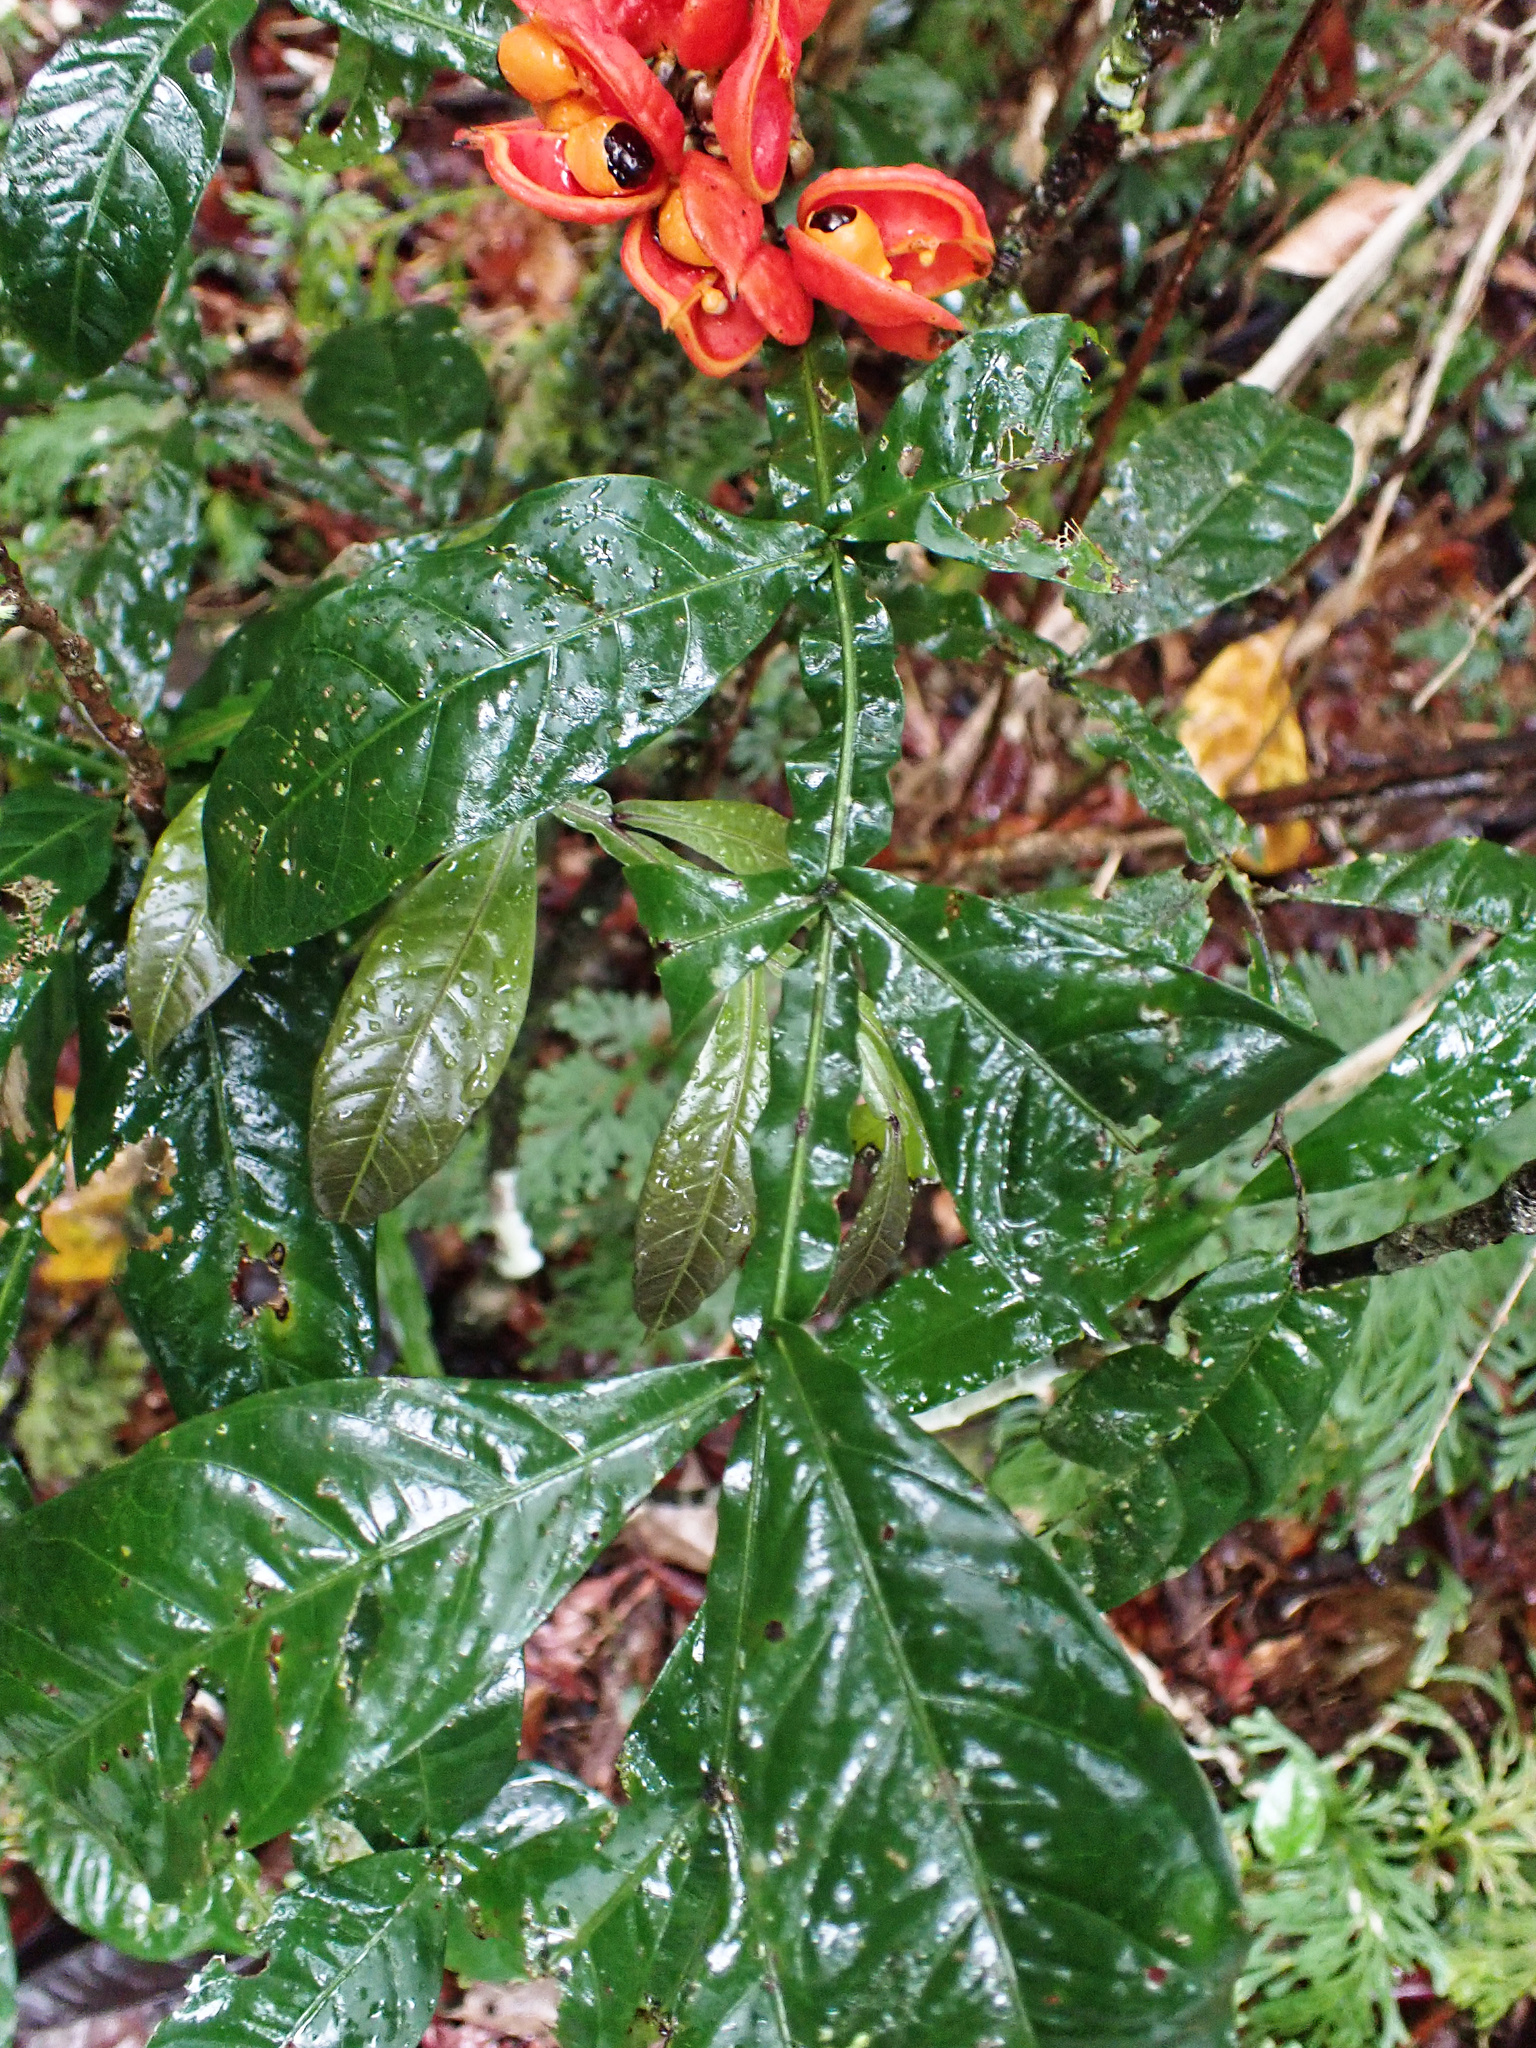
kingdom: Plantae
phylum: Tracheophyta
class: Magnoliopsida
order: Sapindales
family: Sapindaceae
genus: Harpullia
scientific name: Harpullia rhyticarpa
